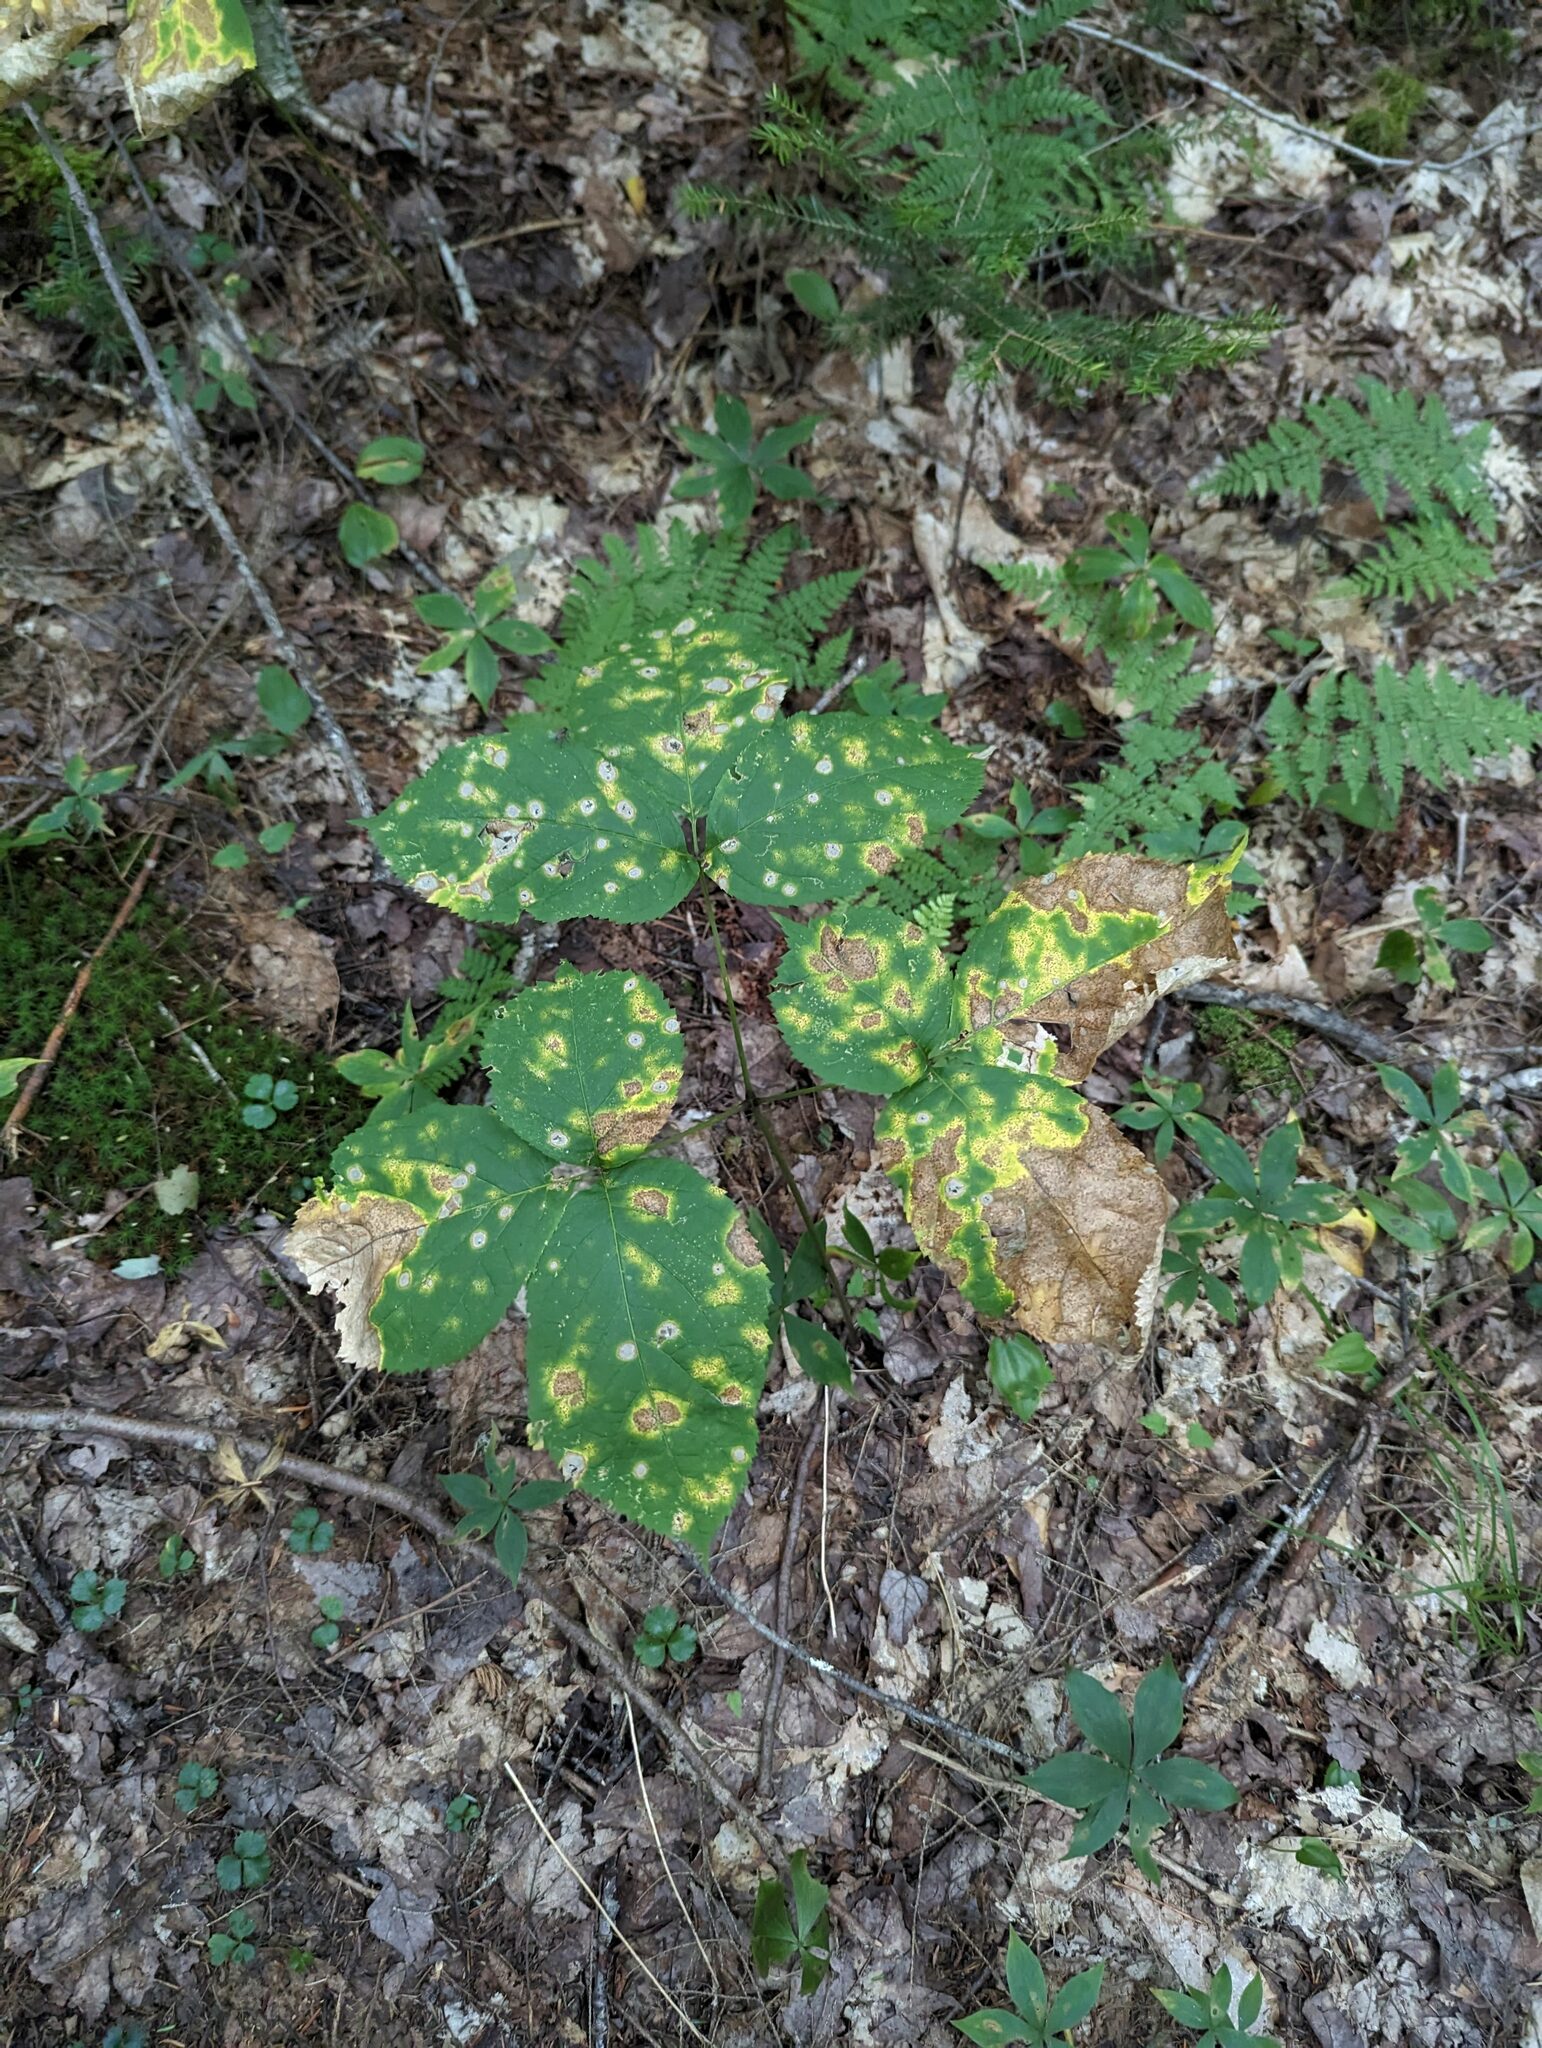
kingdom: Plantae
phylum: Tracheophyta
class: Magnoliopsida
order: Apiales
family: Araliaceae
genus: Aralia
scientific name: Aralia nudicaulis
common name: Wild sarsaparilla
